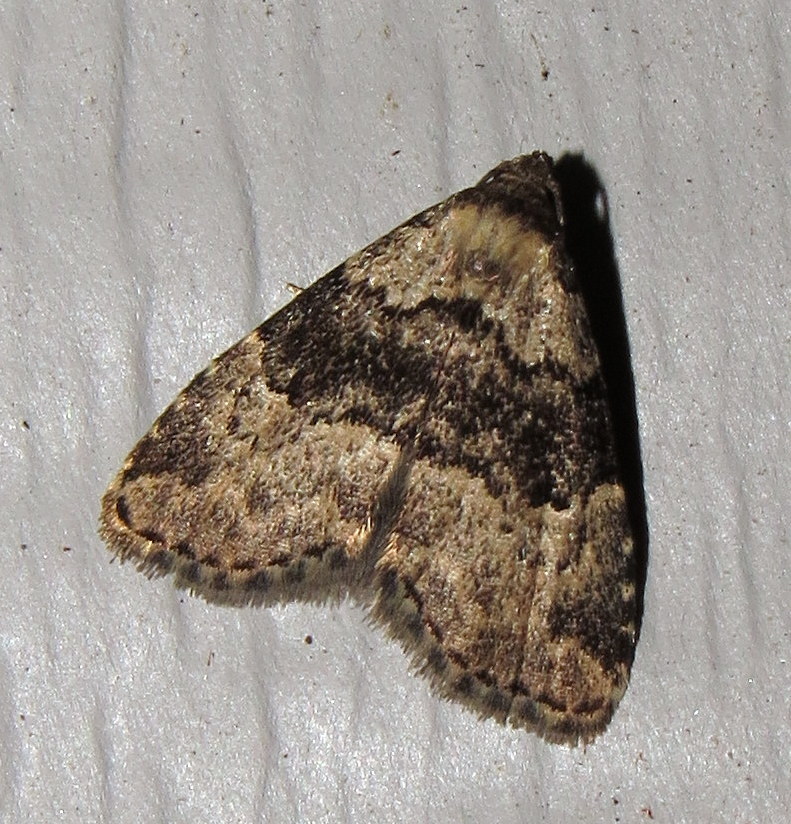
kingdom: Animalia
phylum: Arthropoda
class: Insecta
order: Lepidoptera
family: Erebidae
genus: Dyspyralis
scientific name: Dyspyralis illocata
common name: Visitation moth
